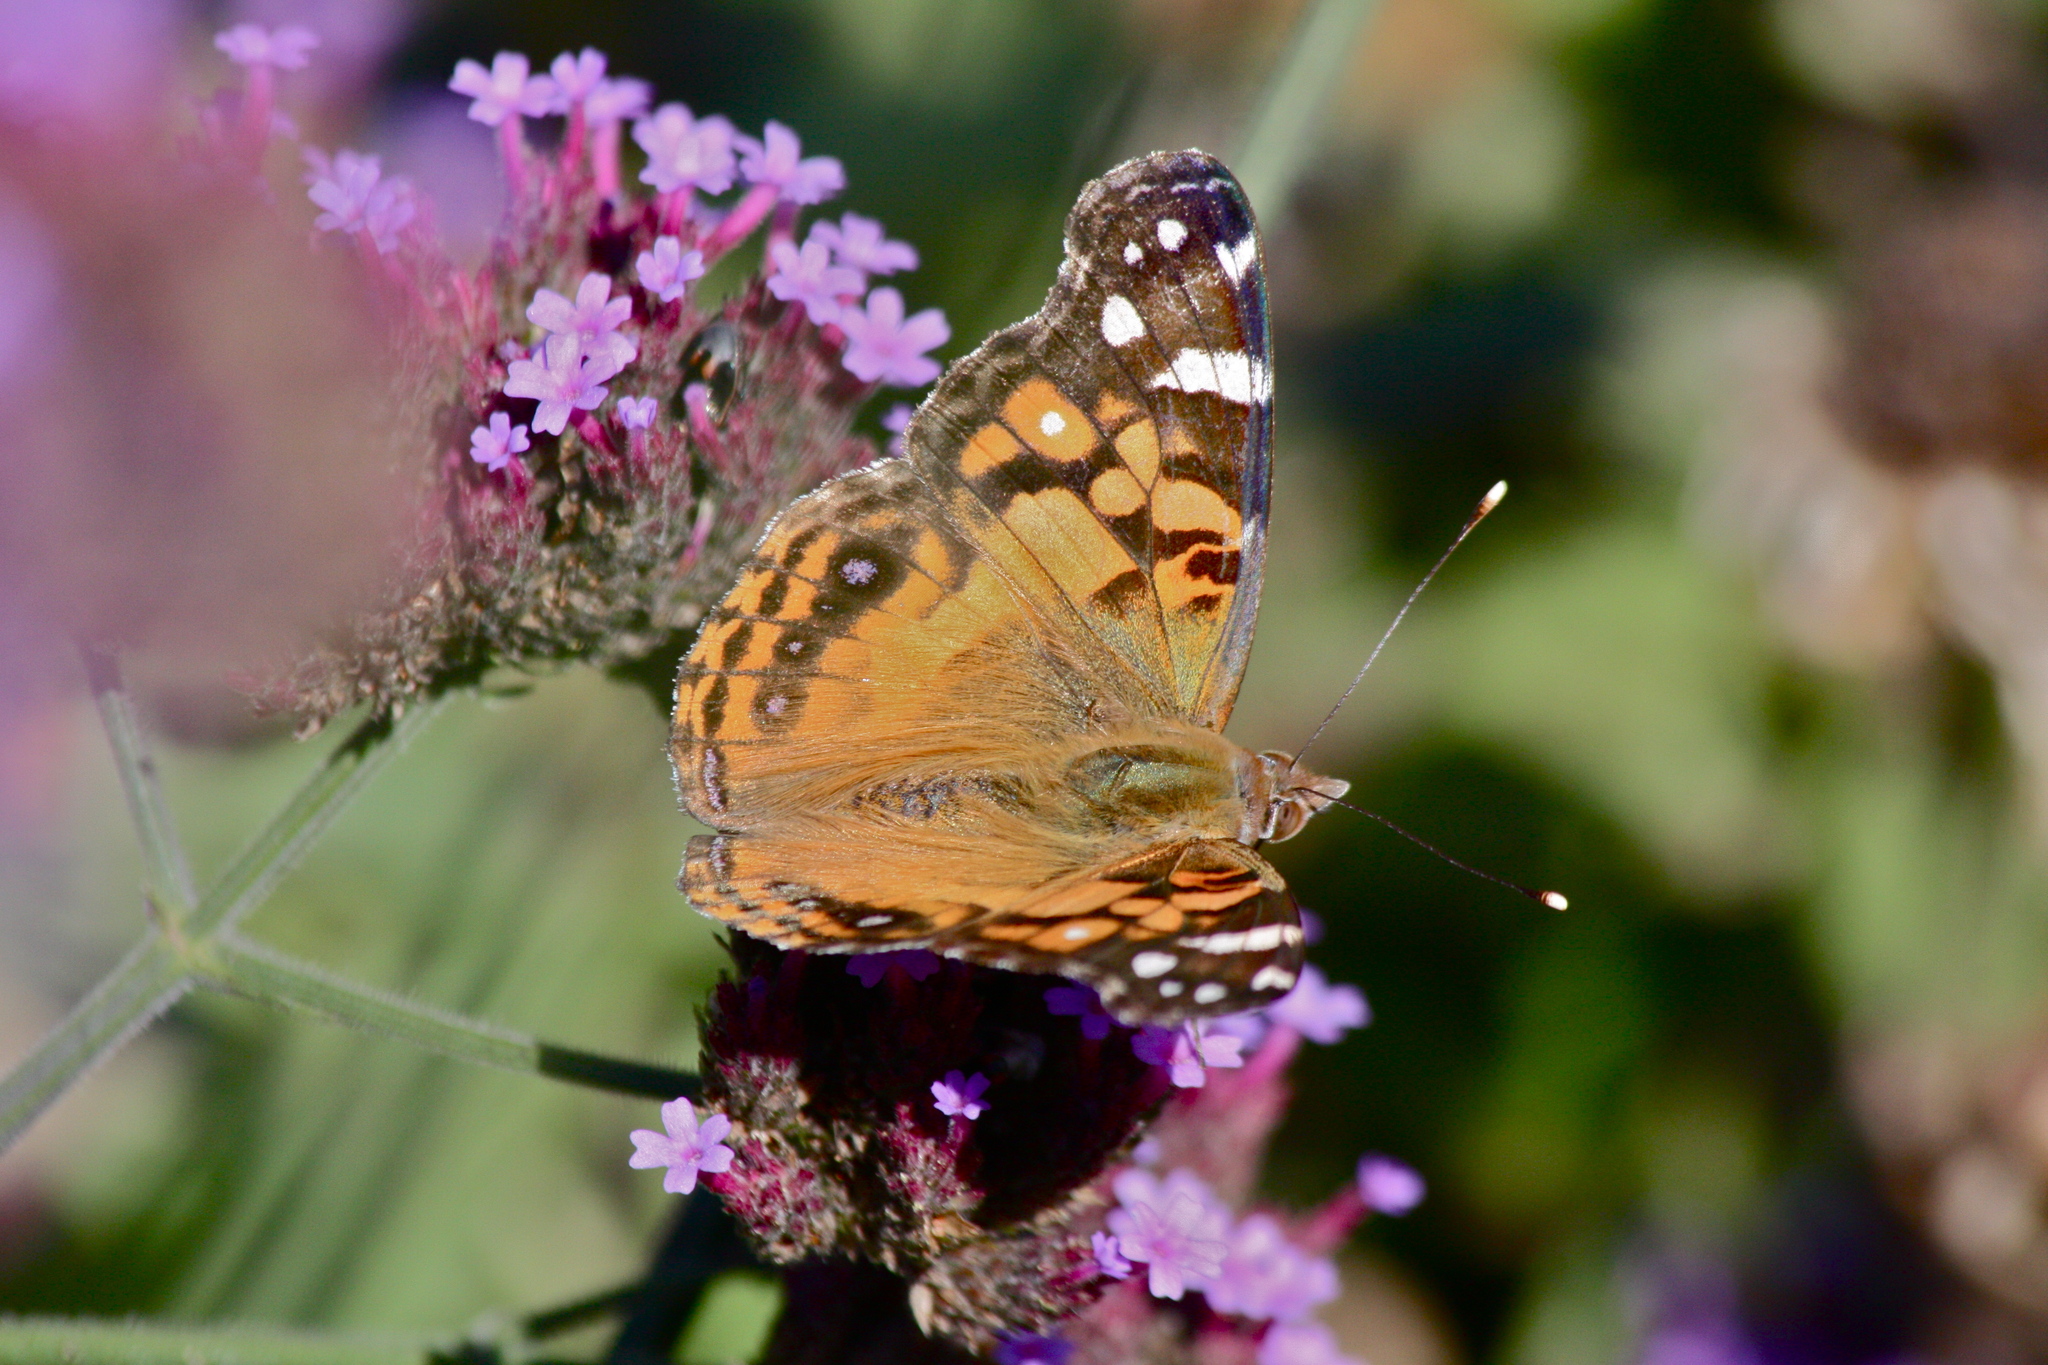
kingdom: Animalia
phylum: Arthropoda
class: Insecta
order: Lepidoptera
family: Nymphalidae
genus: Vanessa
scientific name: Vanessa virginiensis
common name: American lady
